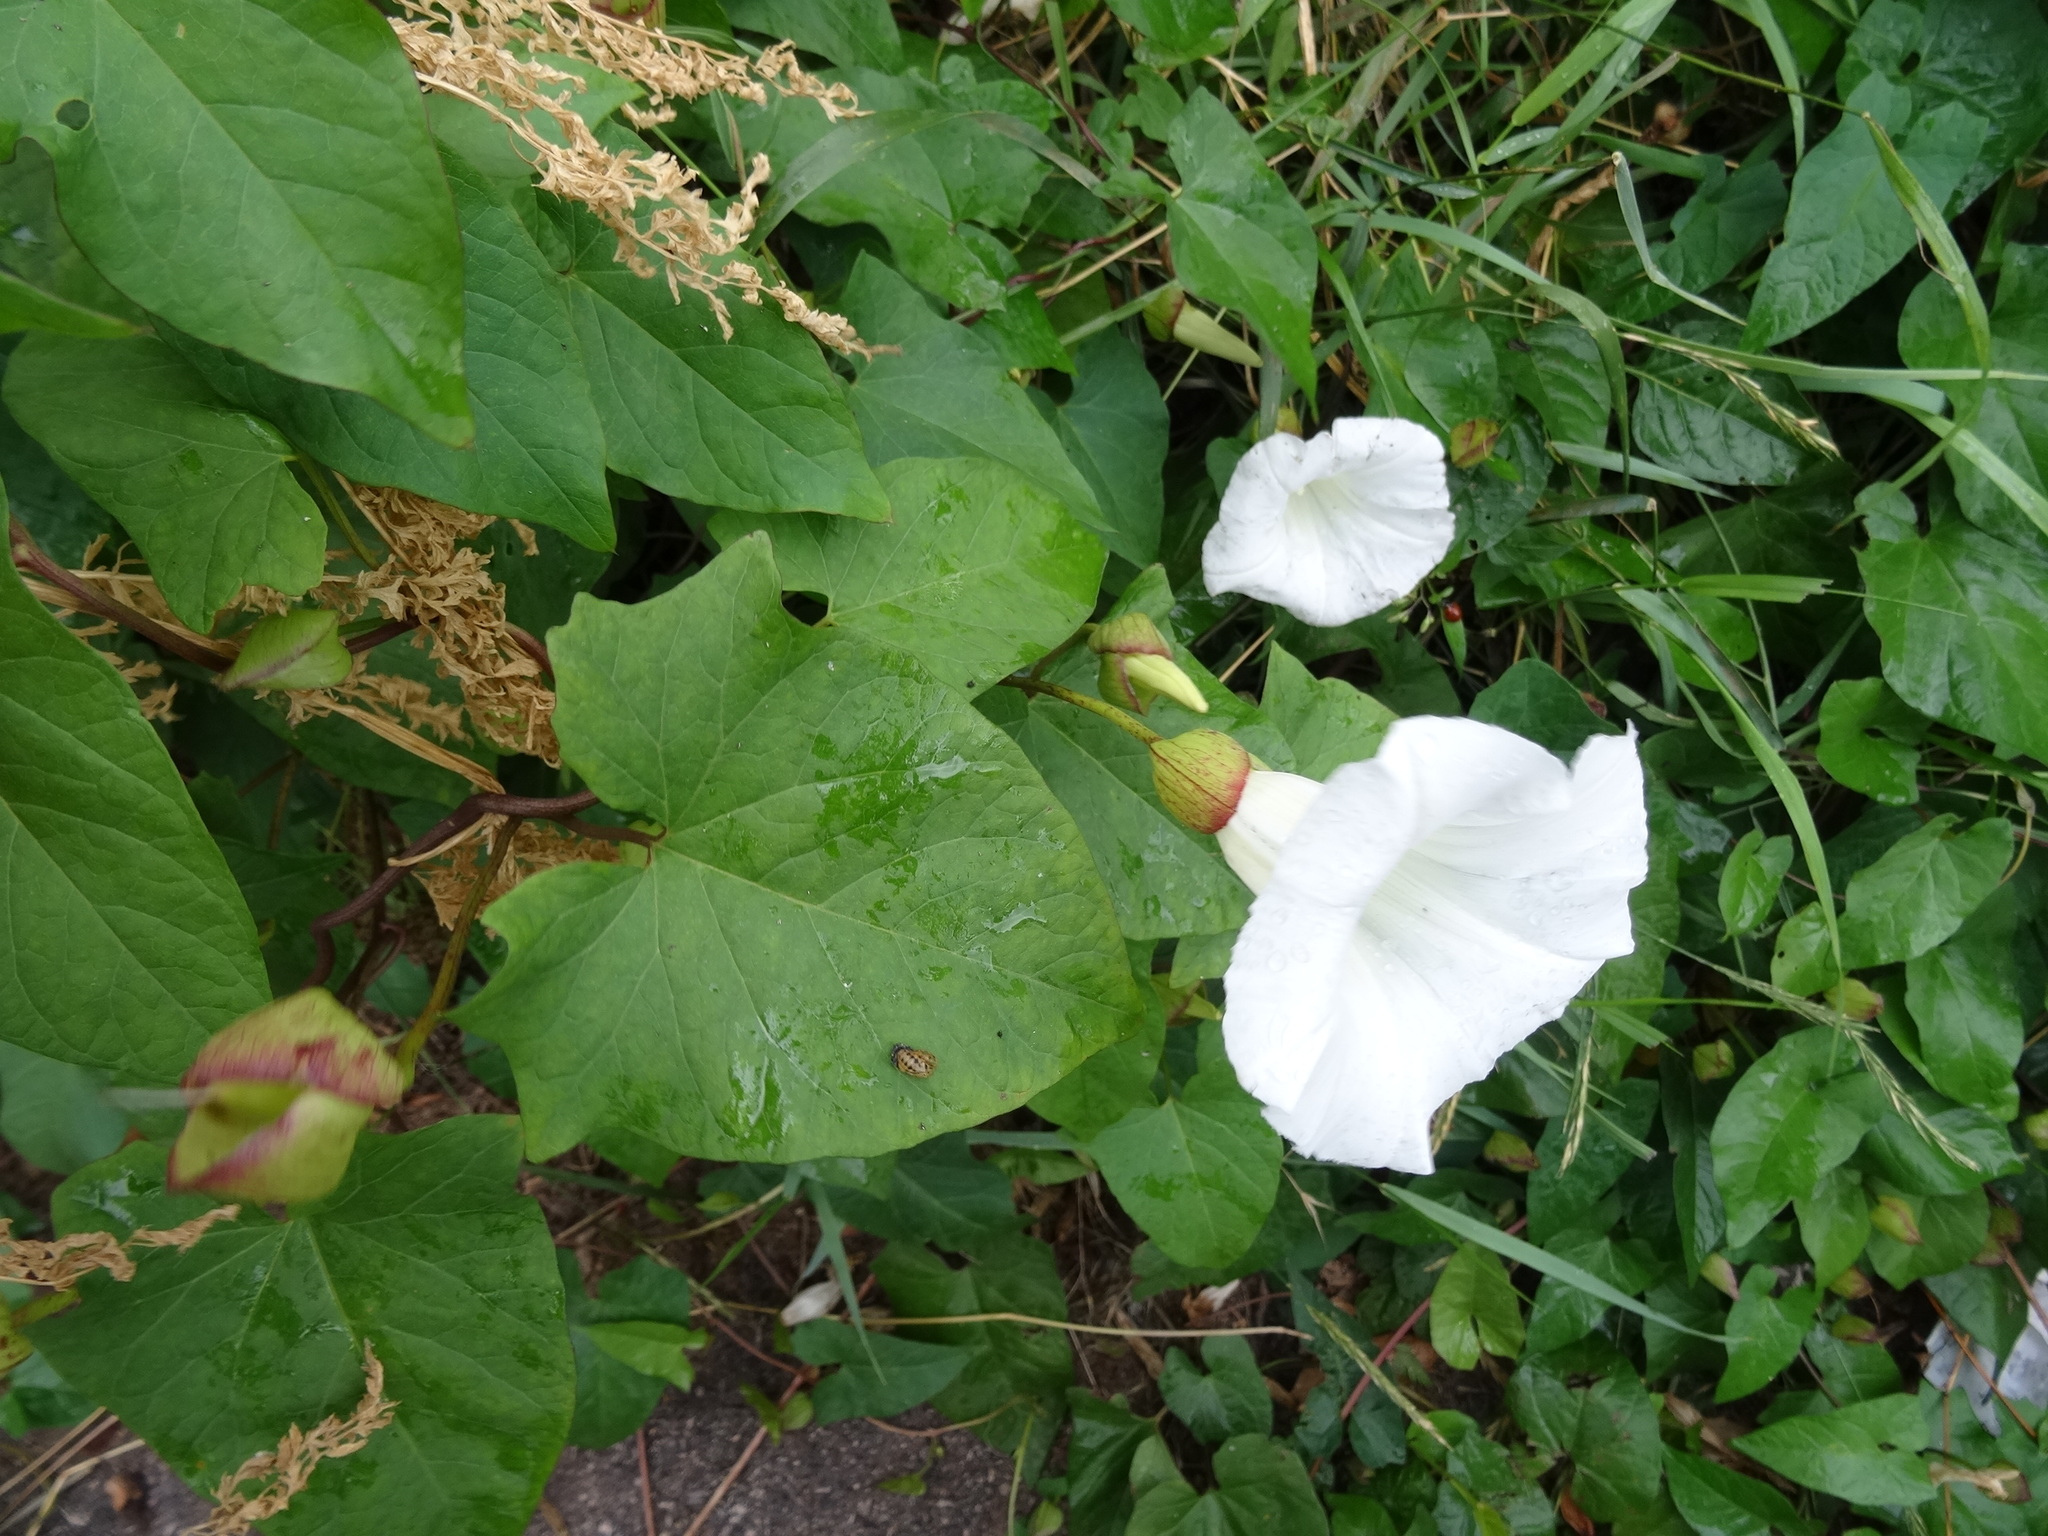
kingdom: Plantae
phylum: Tracheophyta
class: Magnoliopsida
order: Solanales
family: Convolvulaceae
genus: Calystegia
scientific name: Calystegia silvatica
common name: Large bindweed
